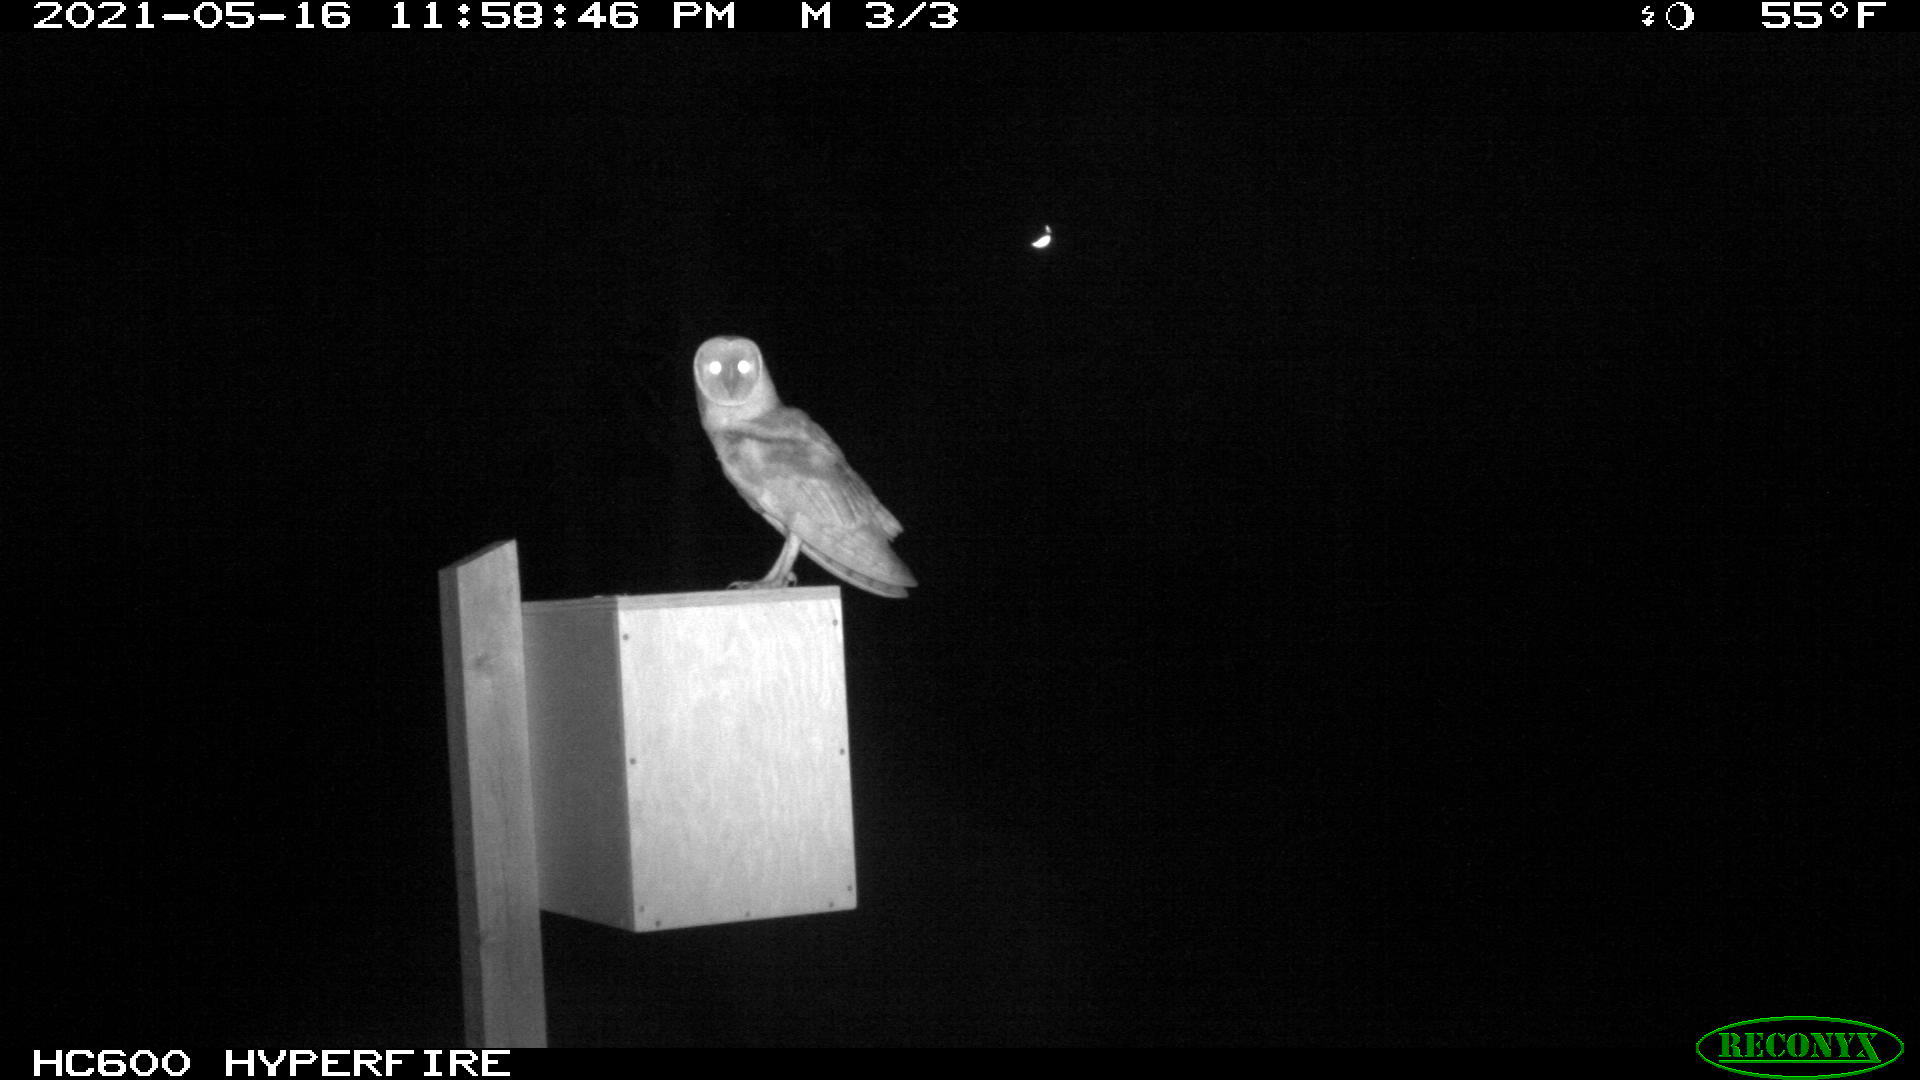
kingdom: Animalia
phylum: Chordata
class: Aves
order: Strigiformes
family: Tytonidae
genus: Tyto
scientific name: Tyto alba
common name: Barn owl
